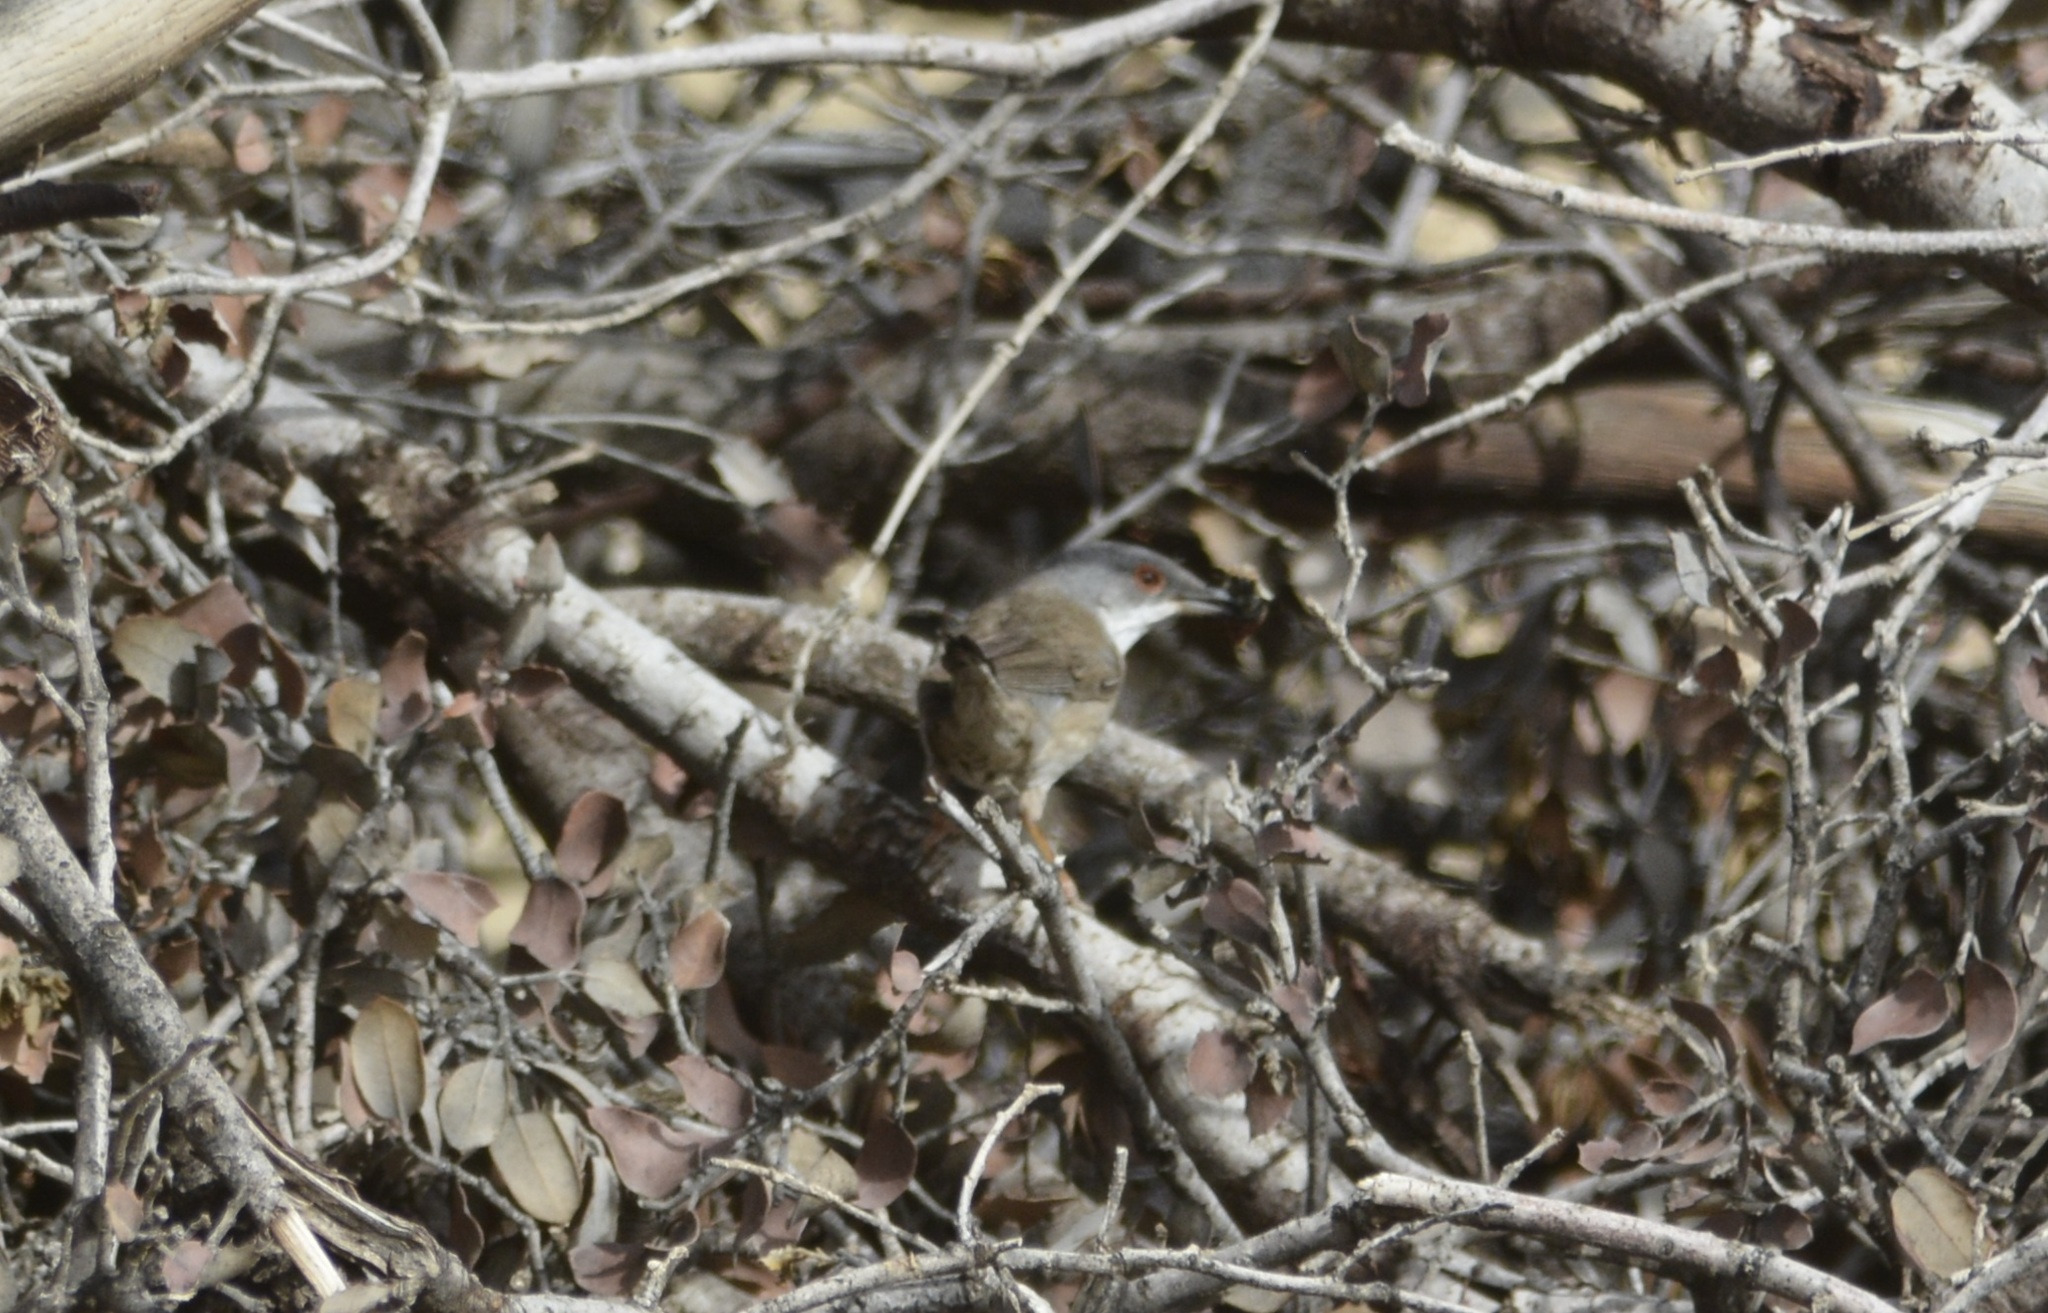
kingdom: Animalia
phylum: Chordata
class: Aves
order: Passeriformes
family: Sylviidae
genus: Curruca
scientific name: Curruca melanocephala
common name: Sardinian warbler
